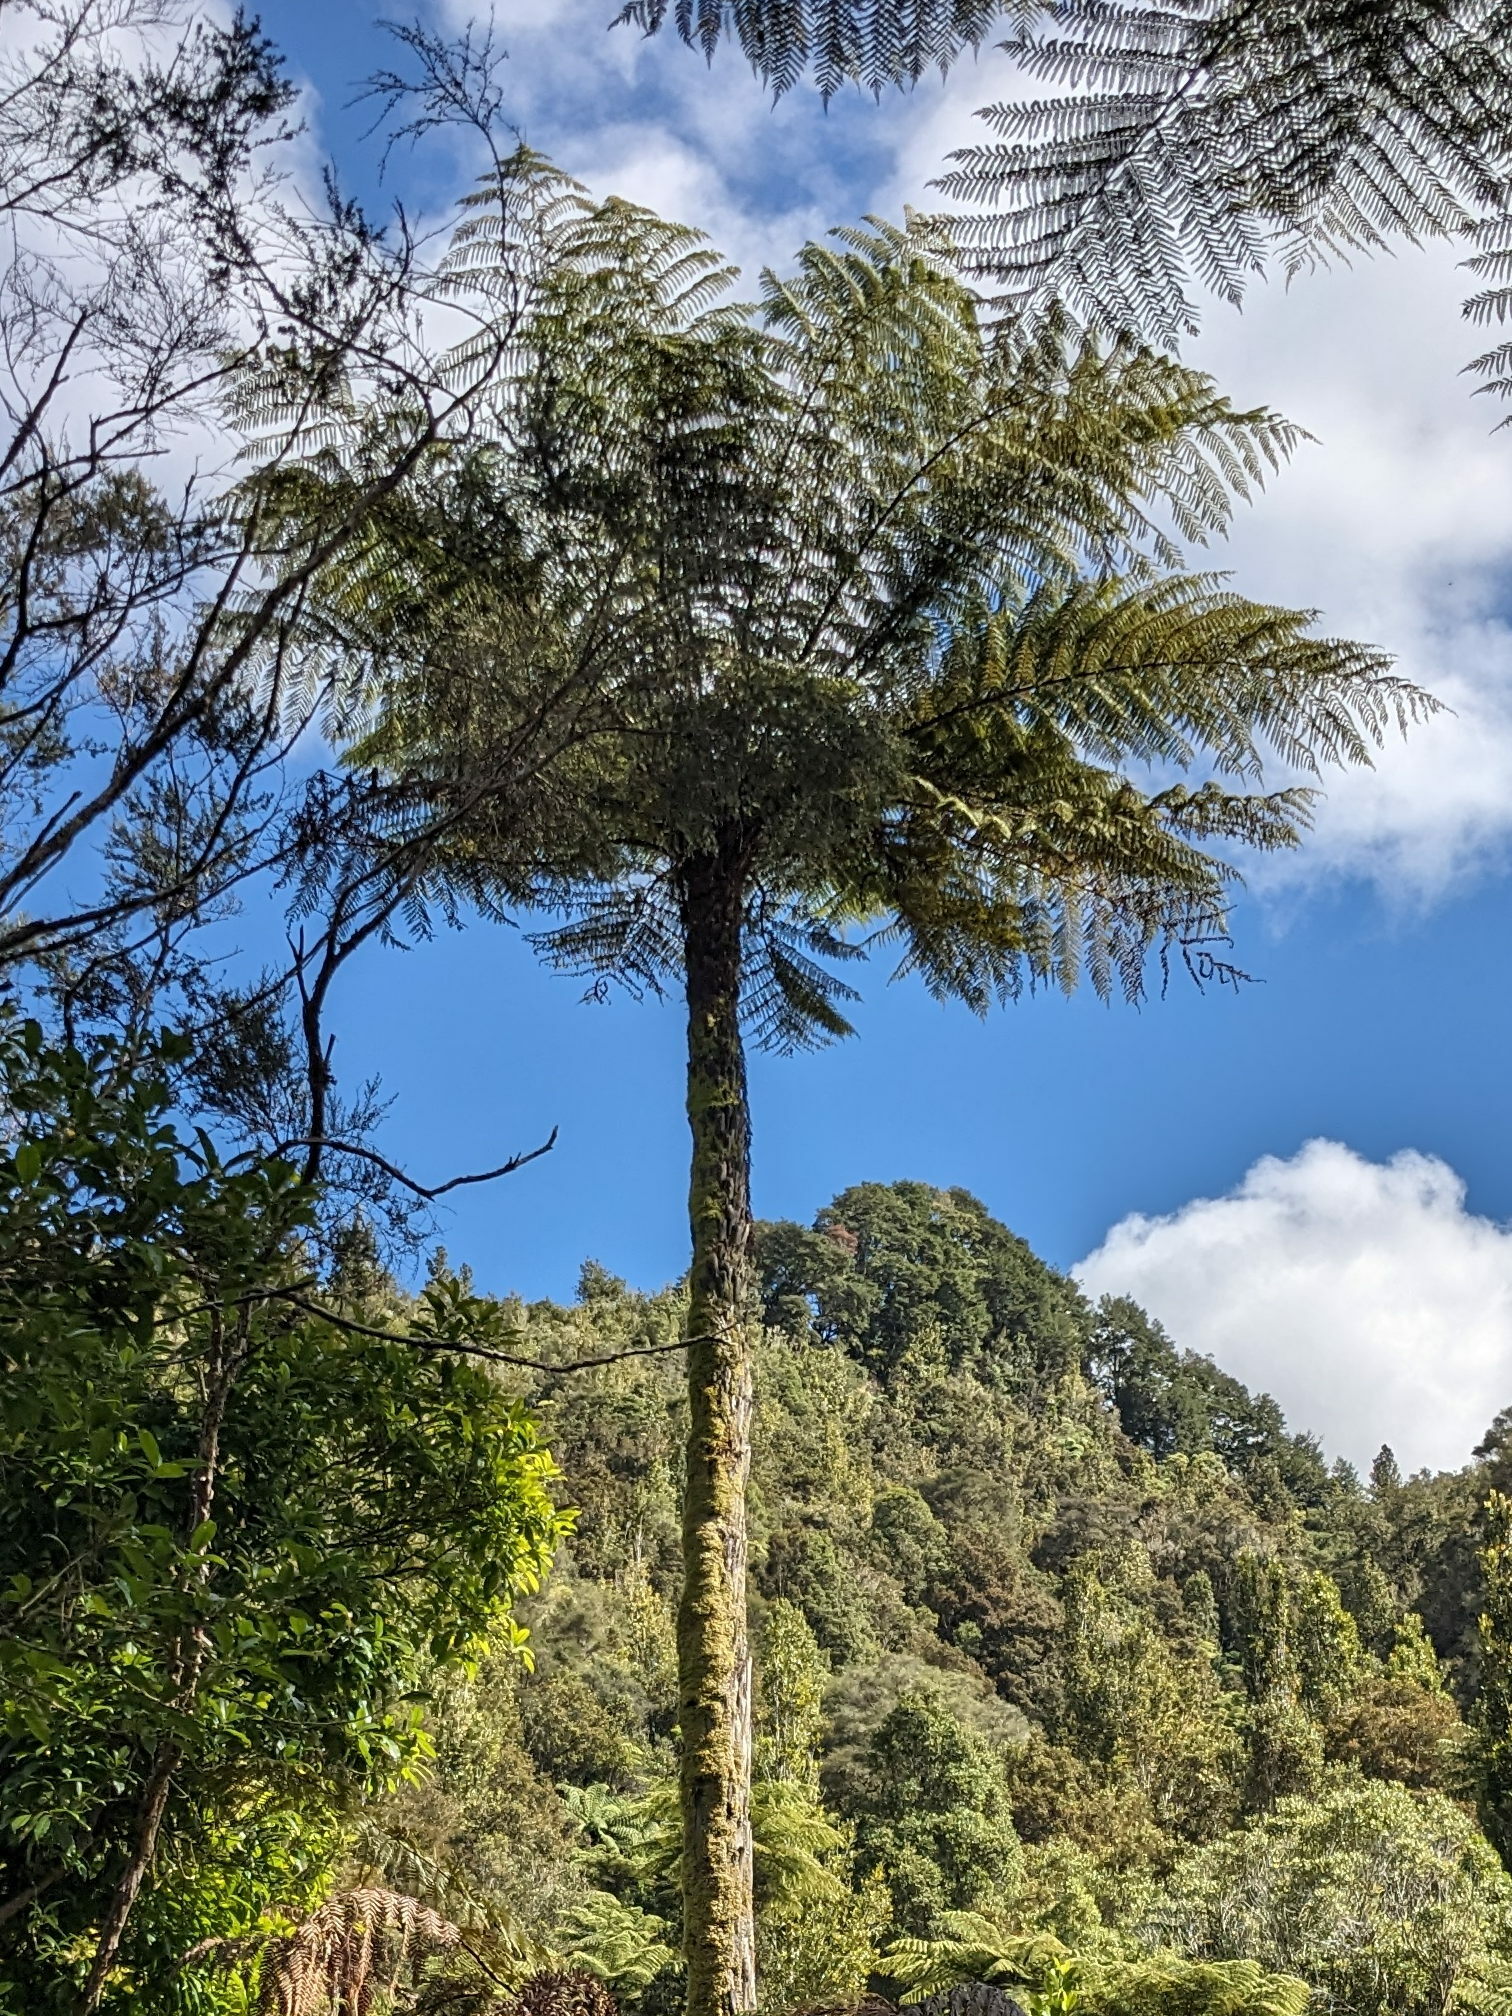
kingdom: Plantae
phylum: Tracheophyta
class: Polypodiopsida
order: Cyatheales
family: Cyatheaceae
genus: Sphaeropteris
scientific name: Sphaeropteris medullaris
